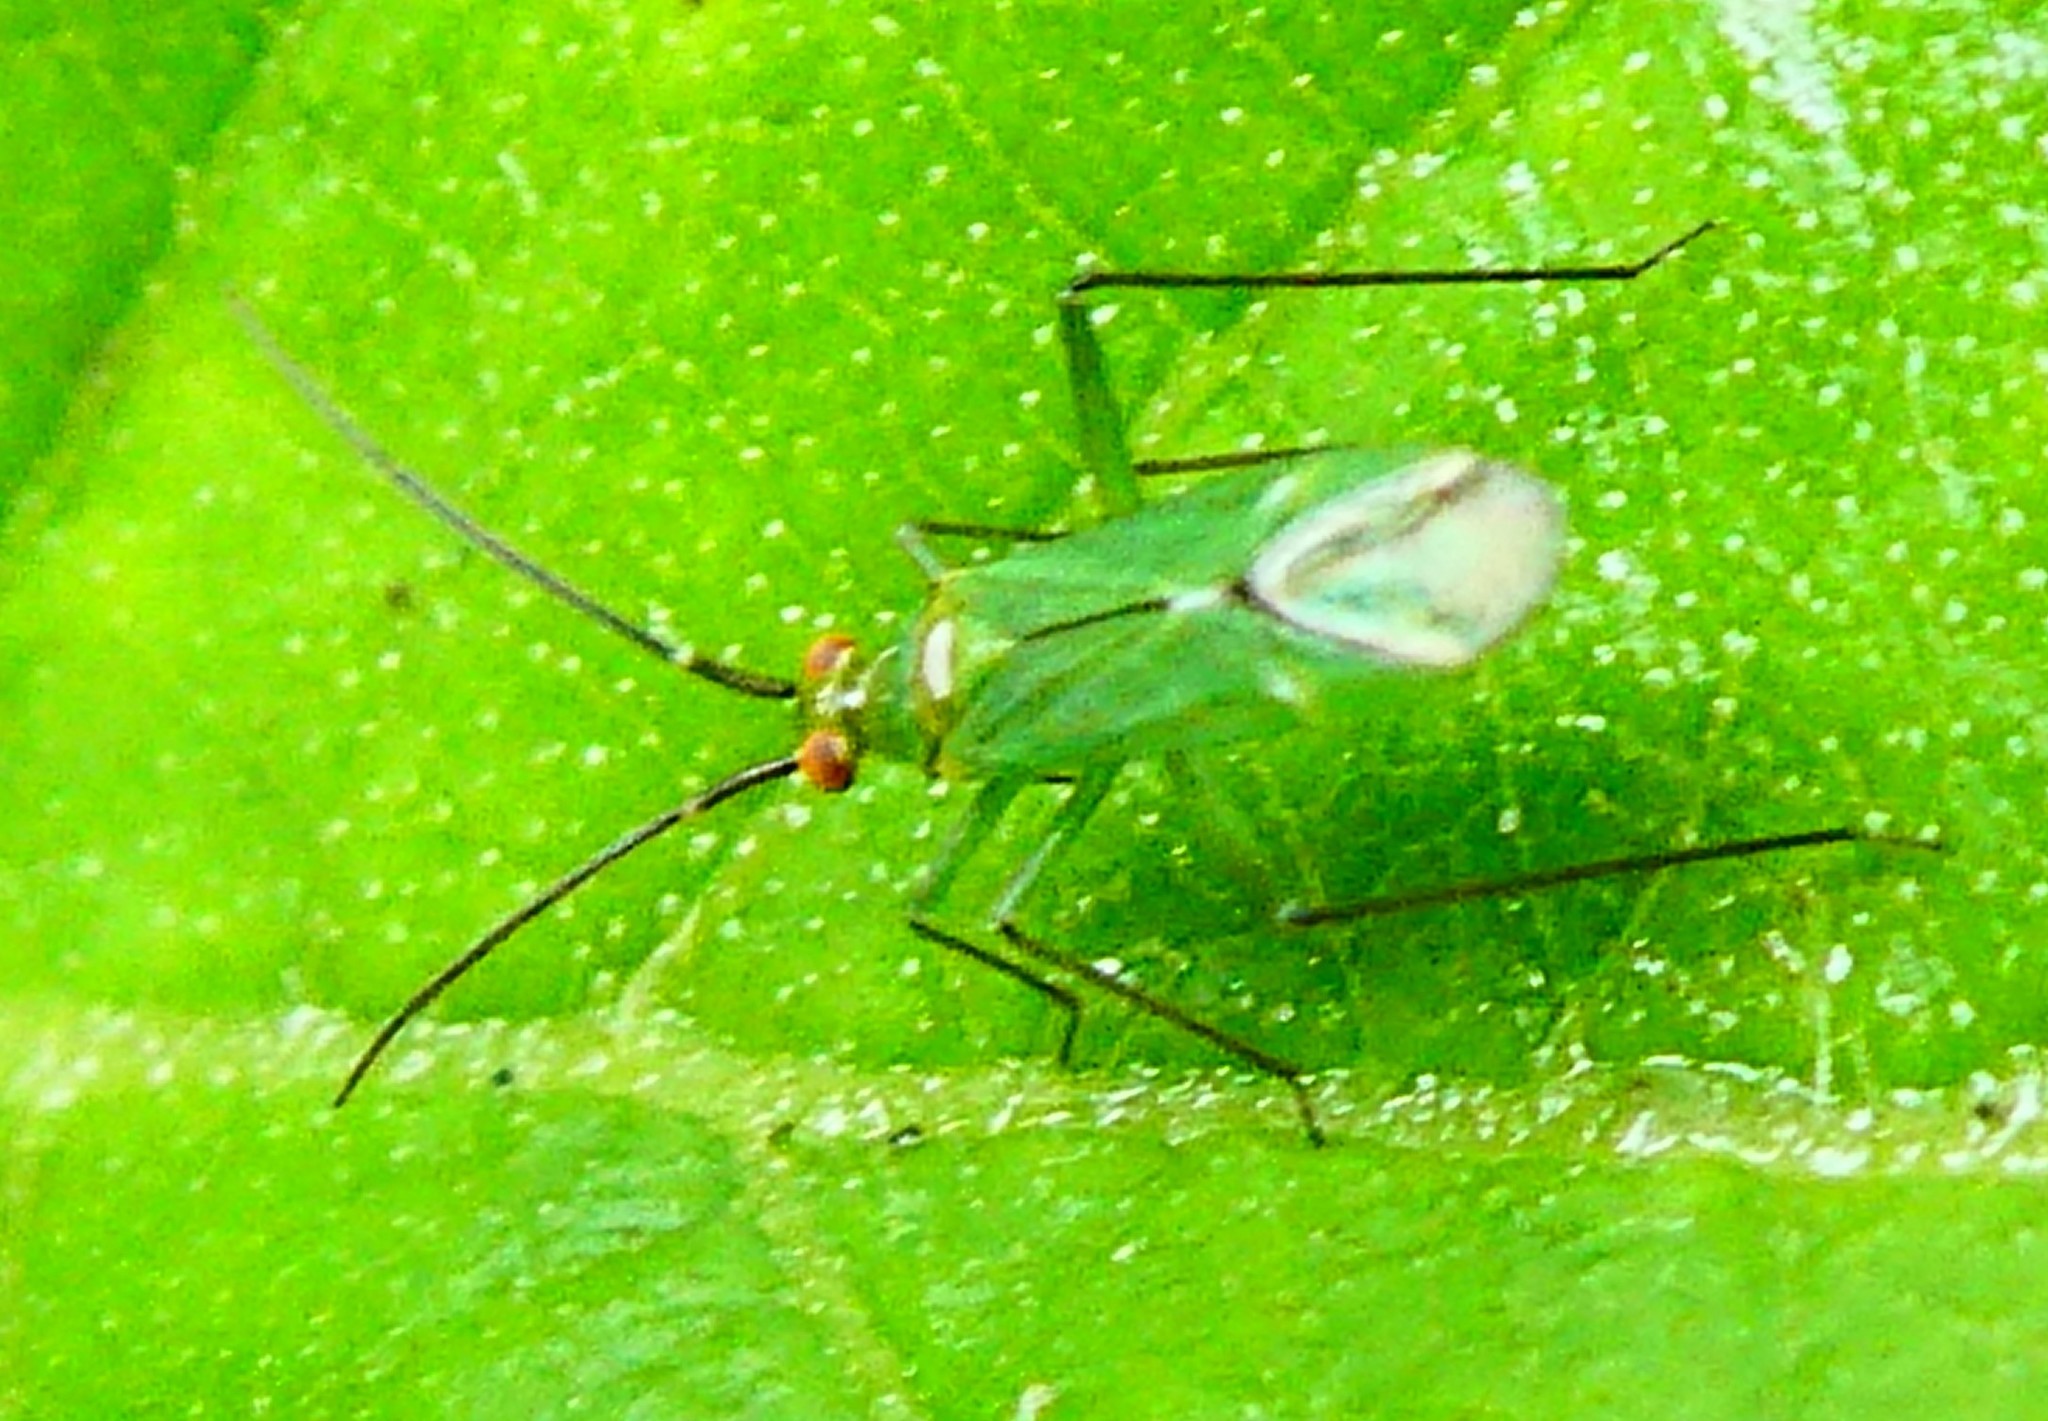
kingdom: Animalia
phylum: Arthropoda
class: Insecta
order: Hemiptera
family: Miridae
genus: Blepharidopterus
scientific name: Blepharidopterus angulatus
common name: Plant bug
